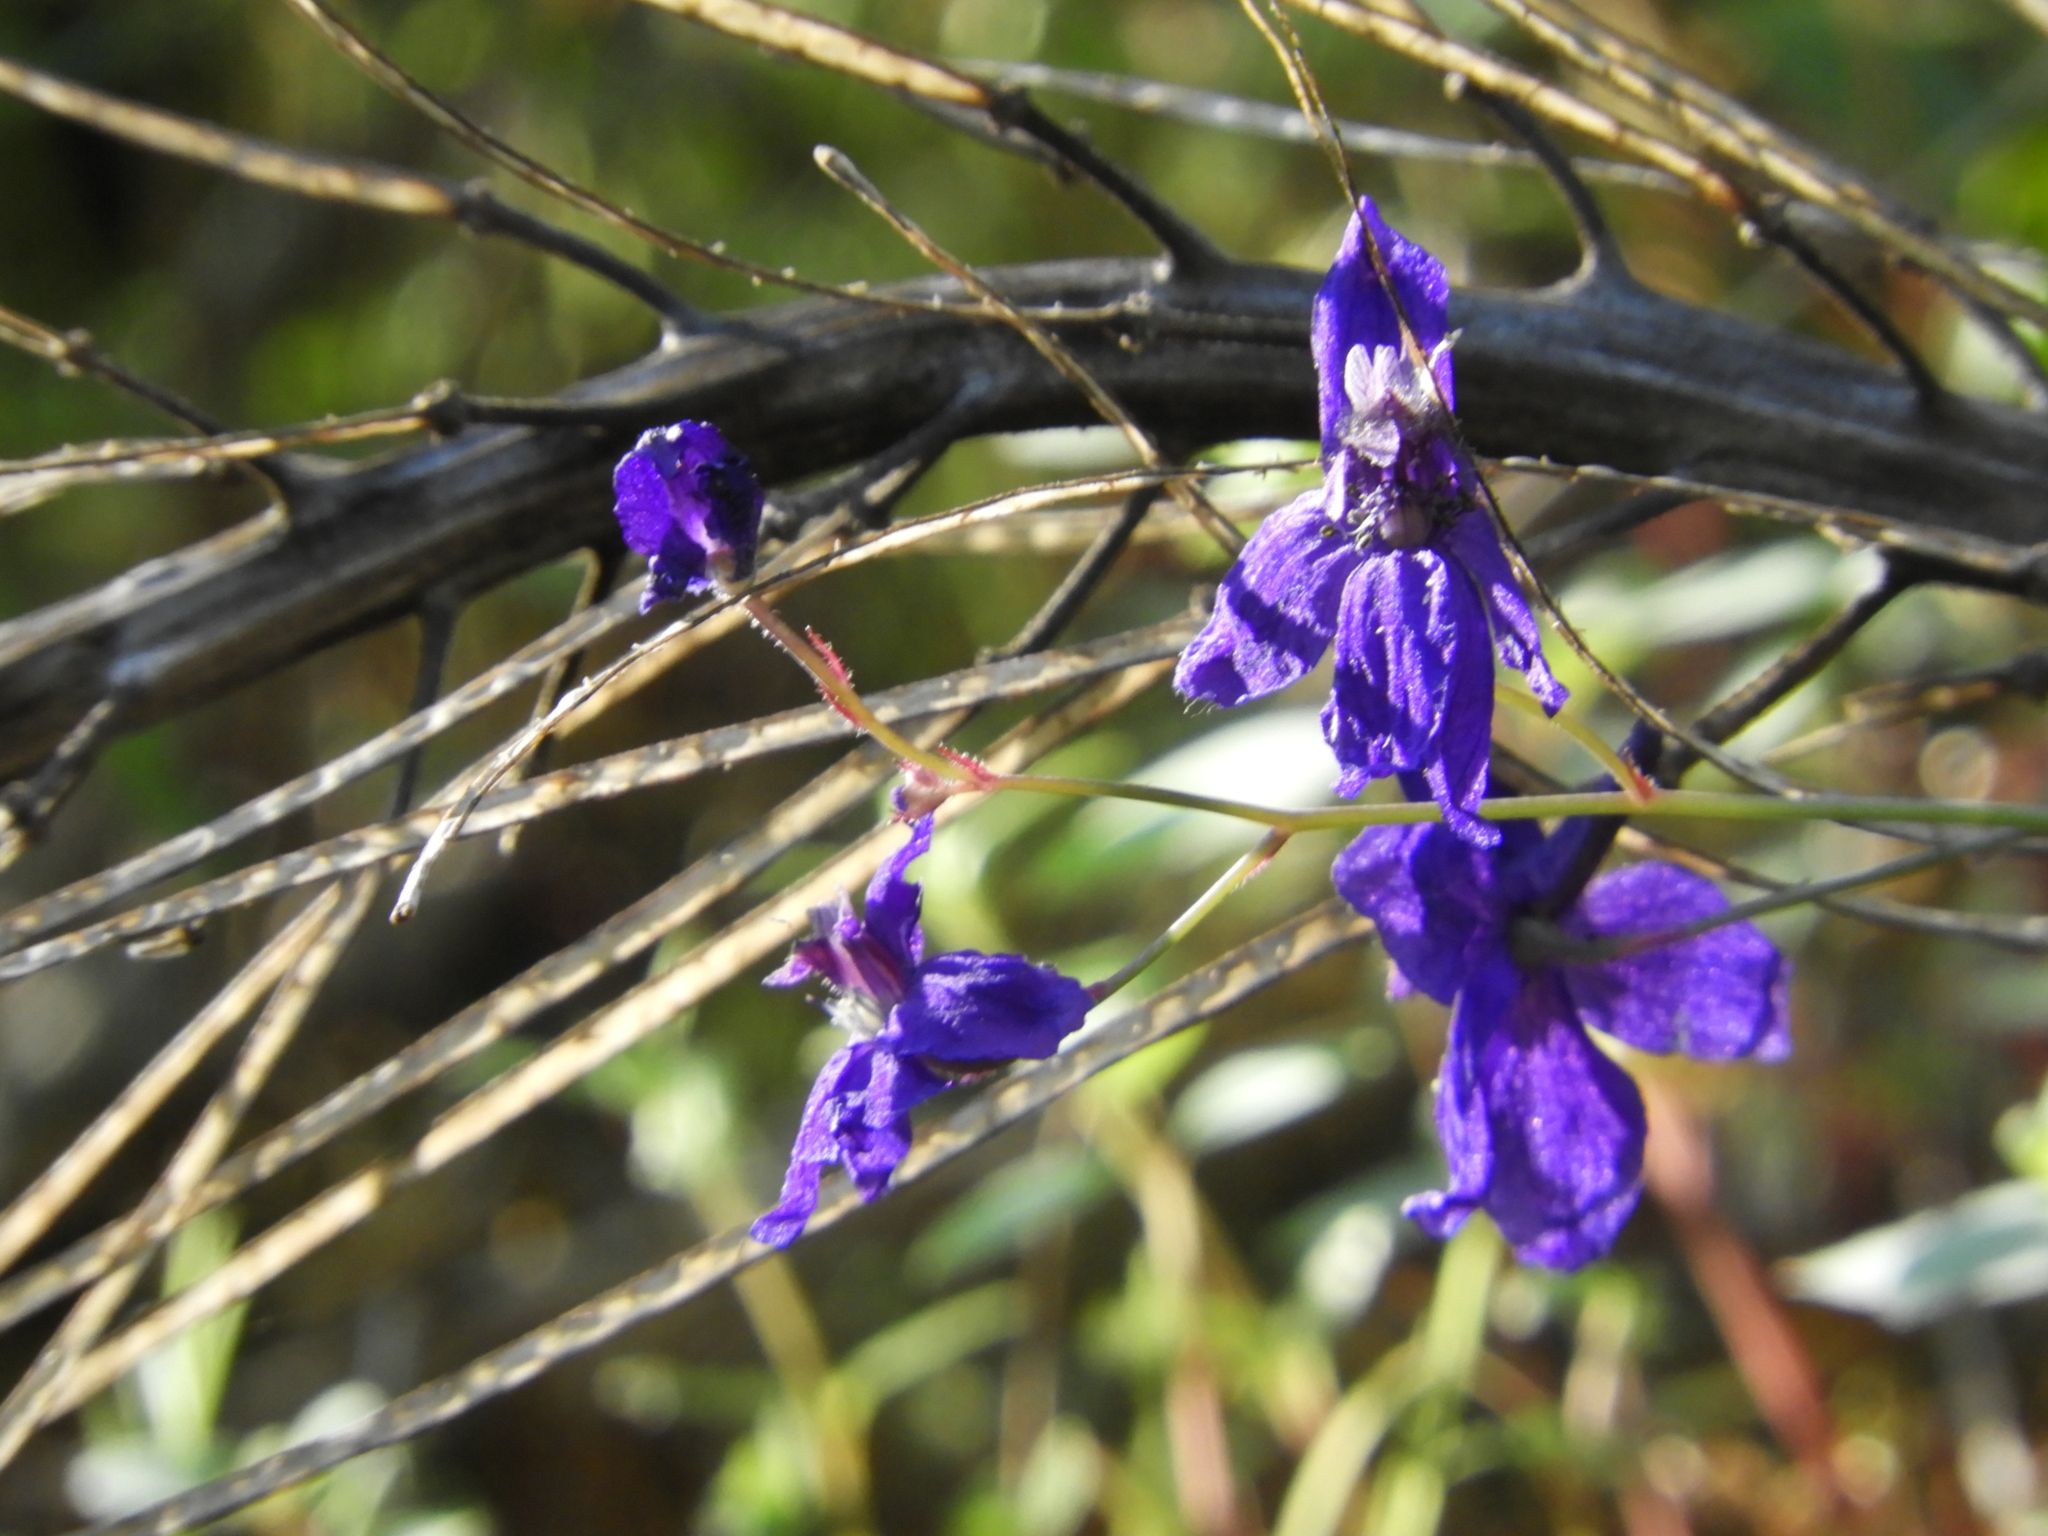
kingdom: Plantae
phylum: Tracheophyta
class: Magnoliopsida
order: Ranunculales
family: Ranunculaceae
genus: Delphinium
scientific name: Delphinium patens
